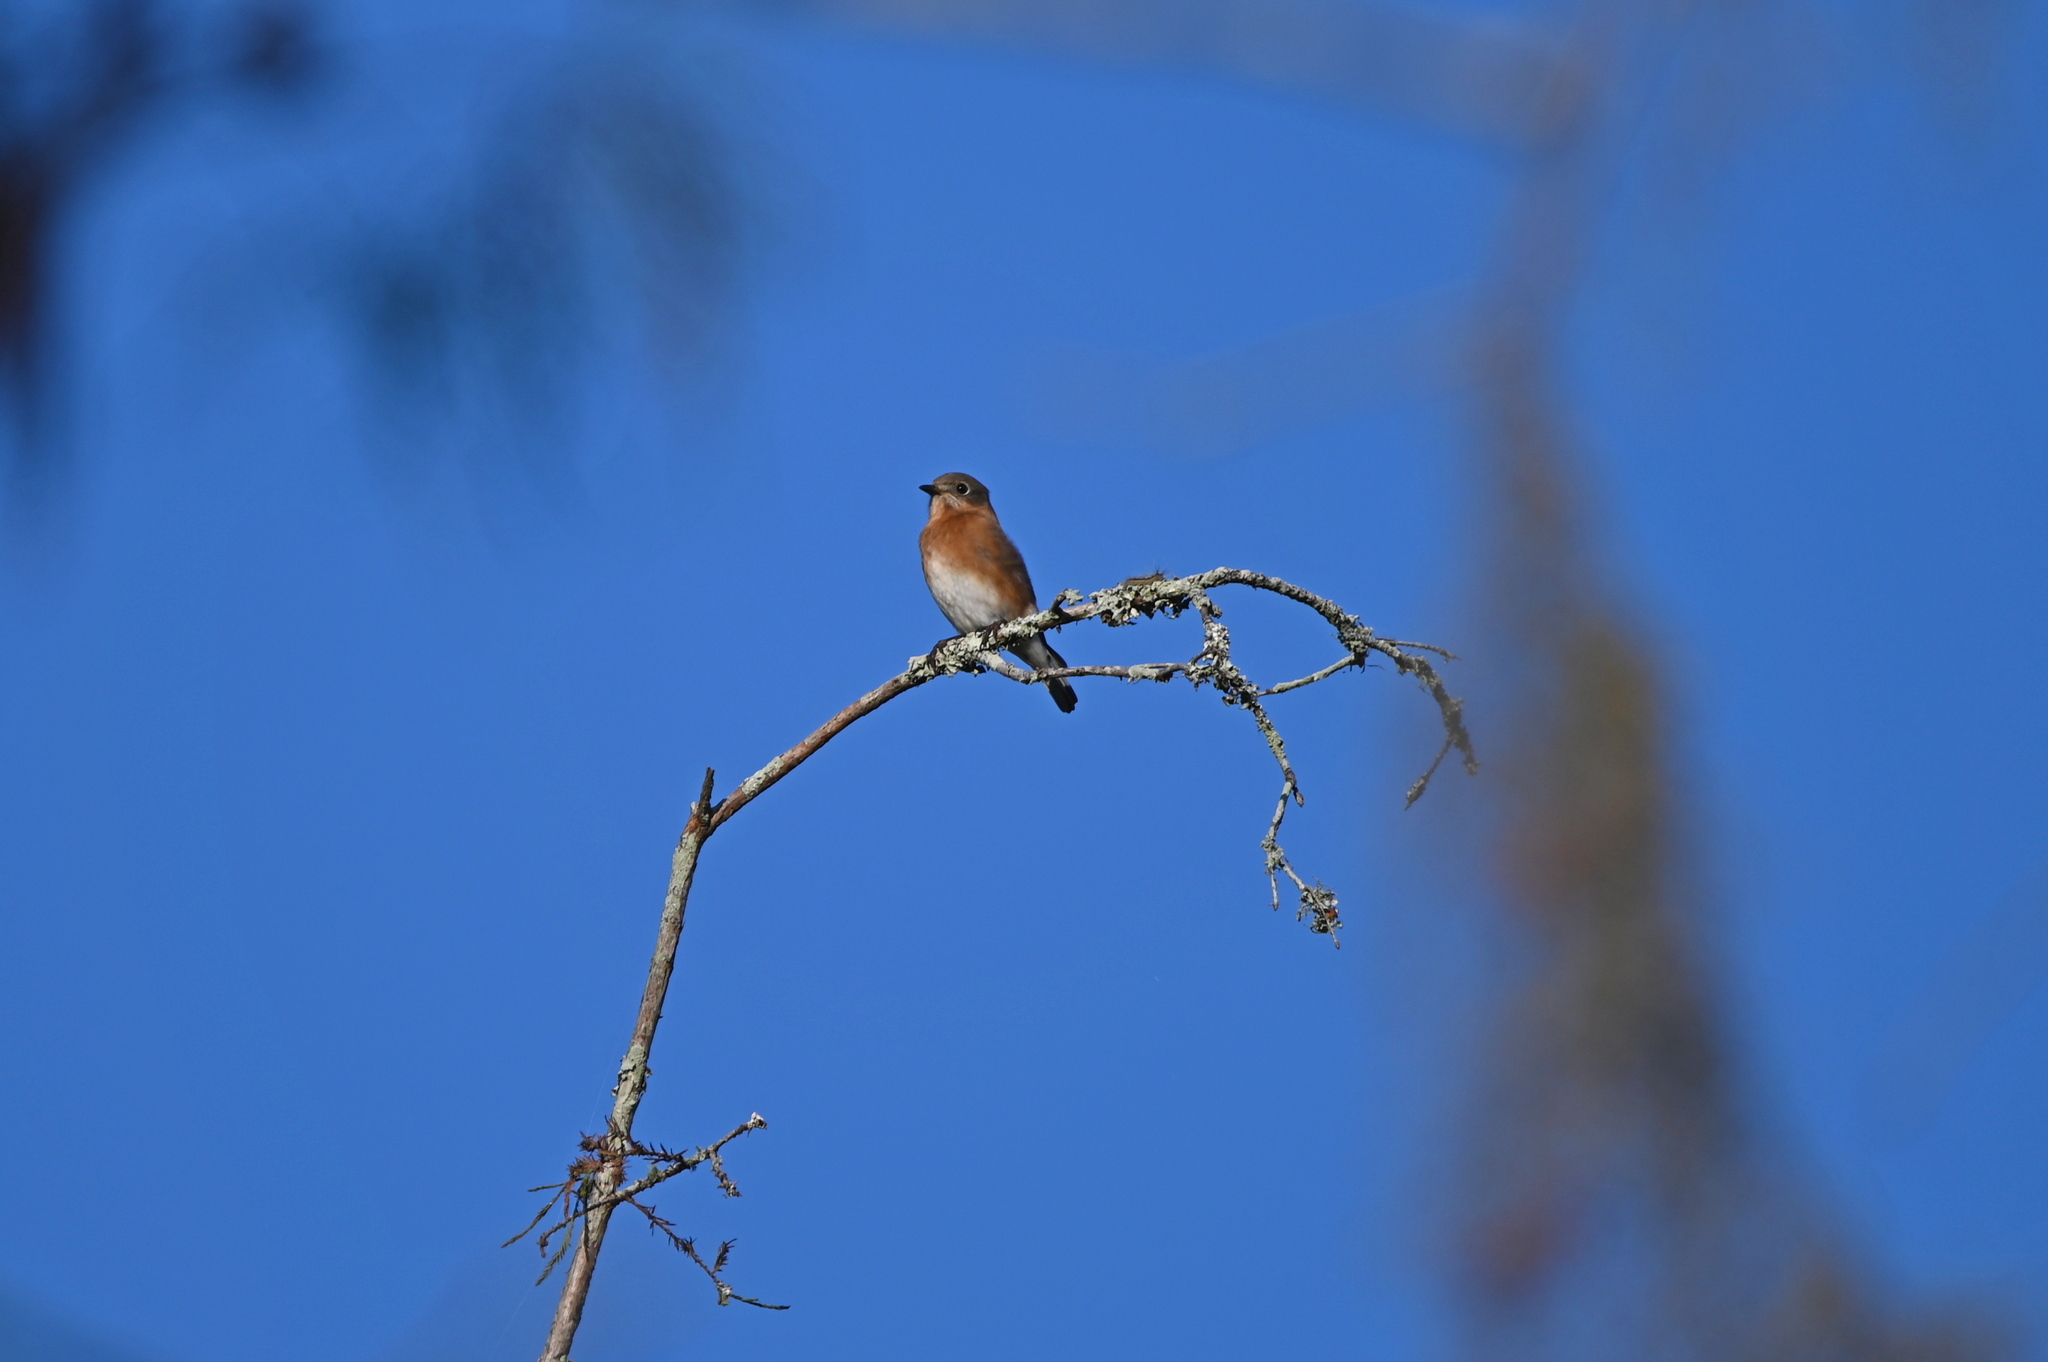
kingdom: Animalia
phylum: Chordata
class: Aves
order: Passeriformes
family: Turdidae
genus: Sialia
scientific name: Sialia sialis
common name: Eastern bluebird
